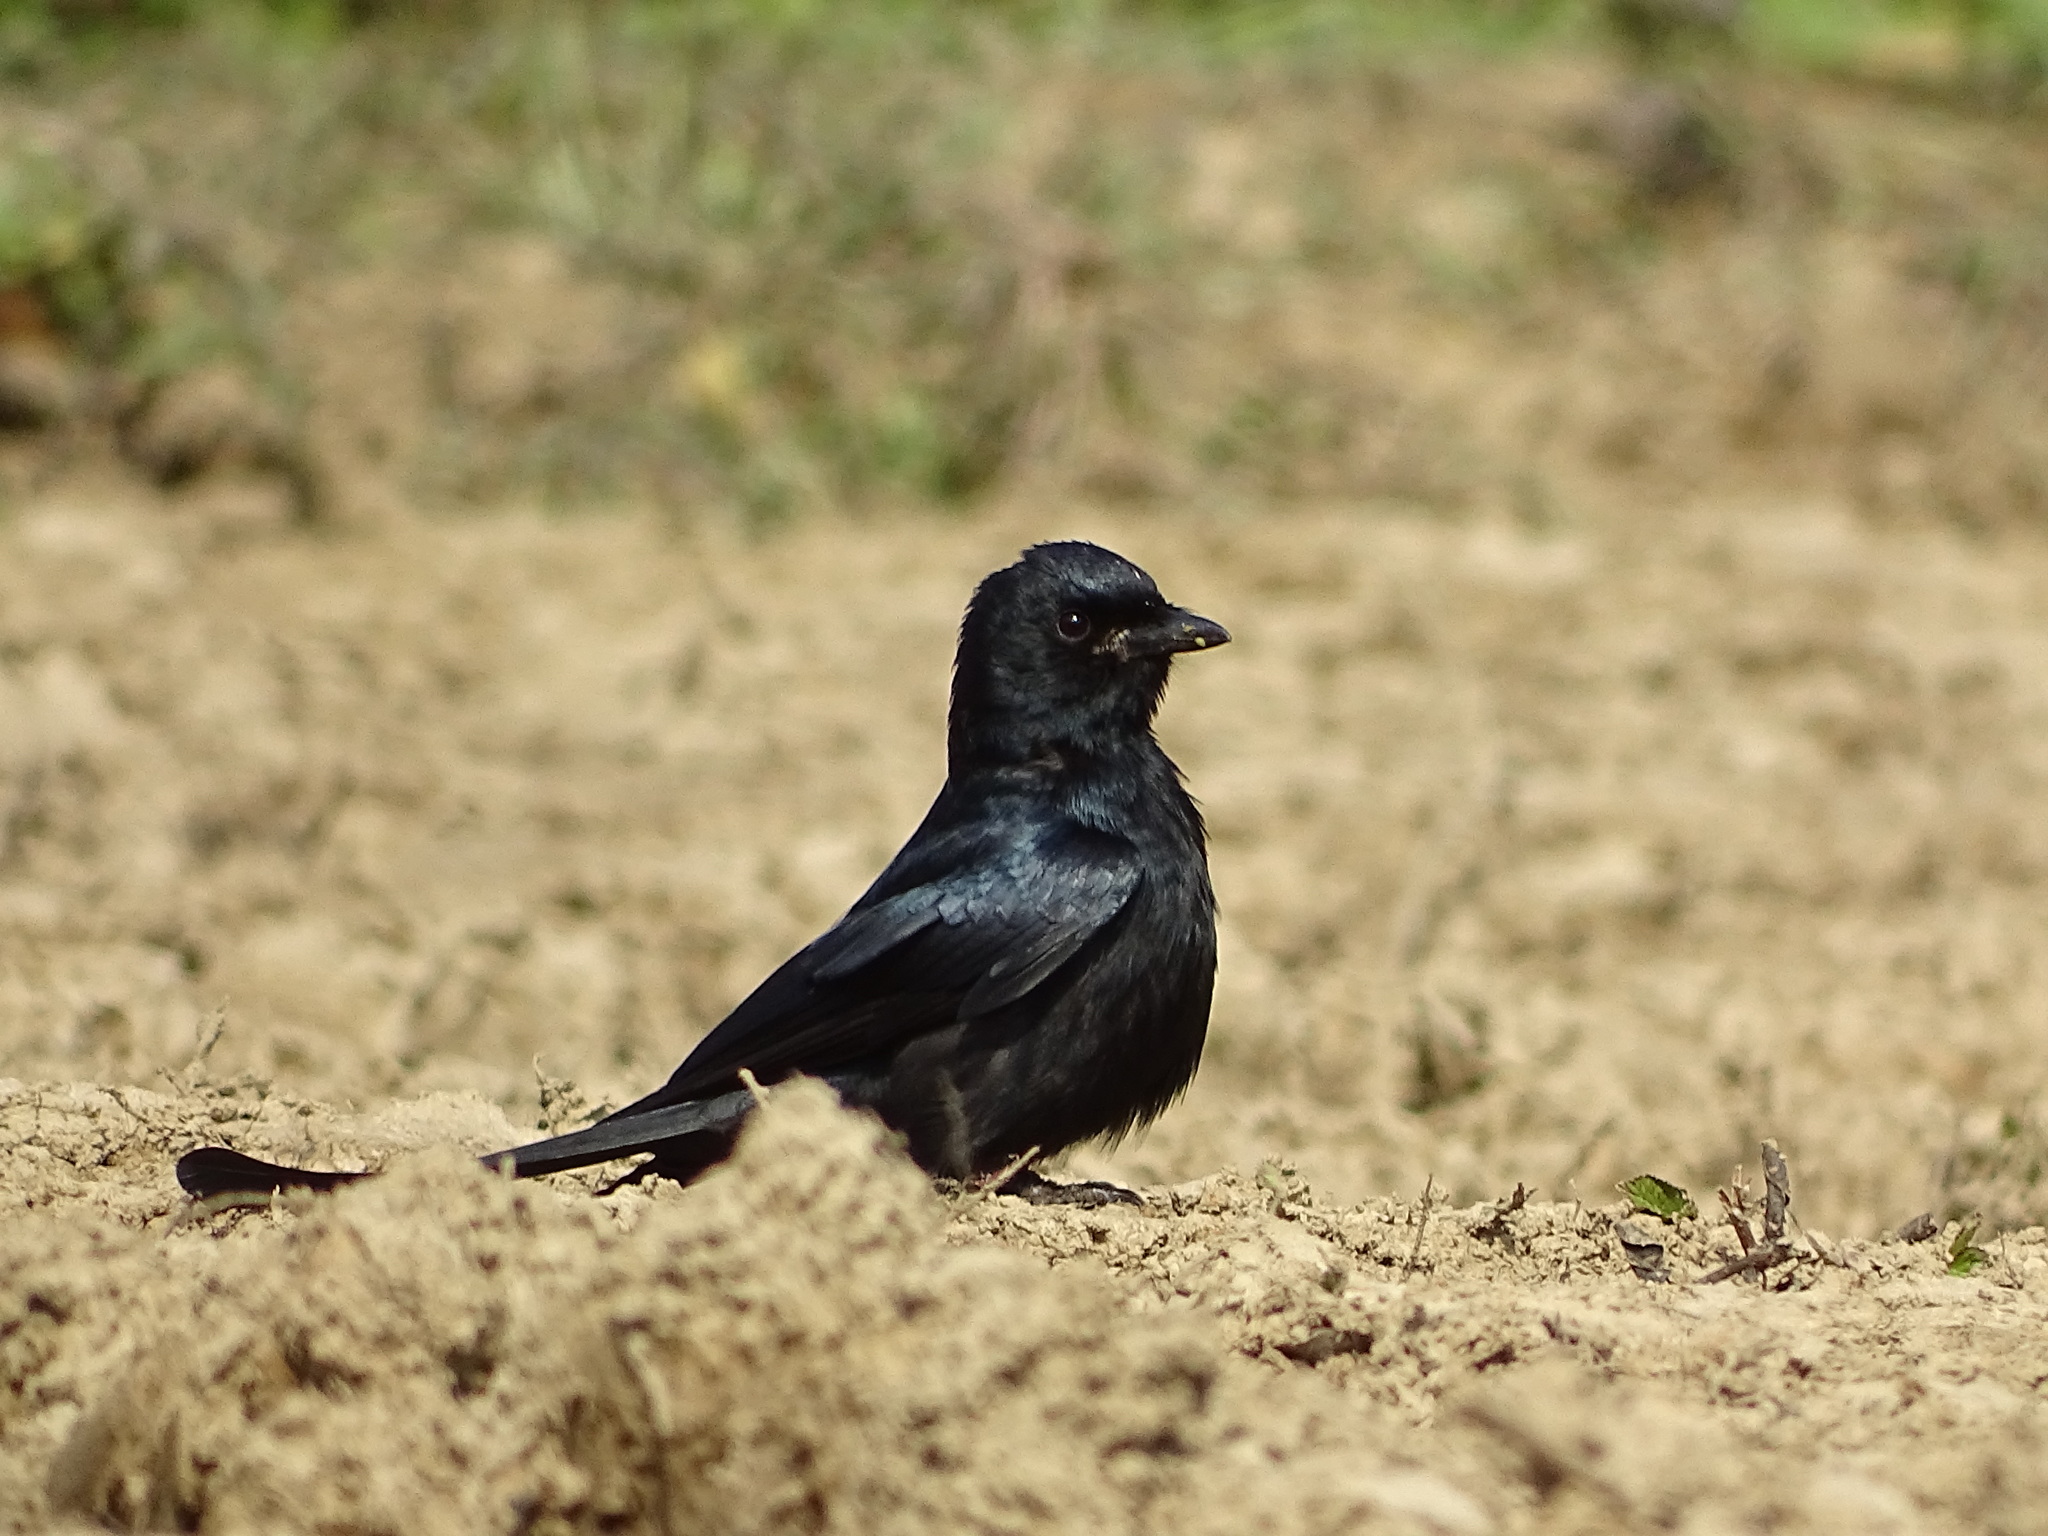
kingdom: Animalia
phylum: Chordata
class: Aves
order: Passeriformes
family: Dicruridae
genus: Dicrurus
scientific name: Dicrurus macrocercus
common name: Black drongo
